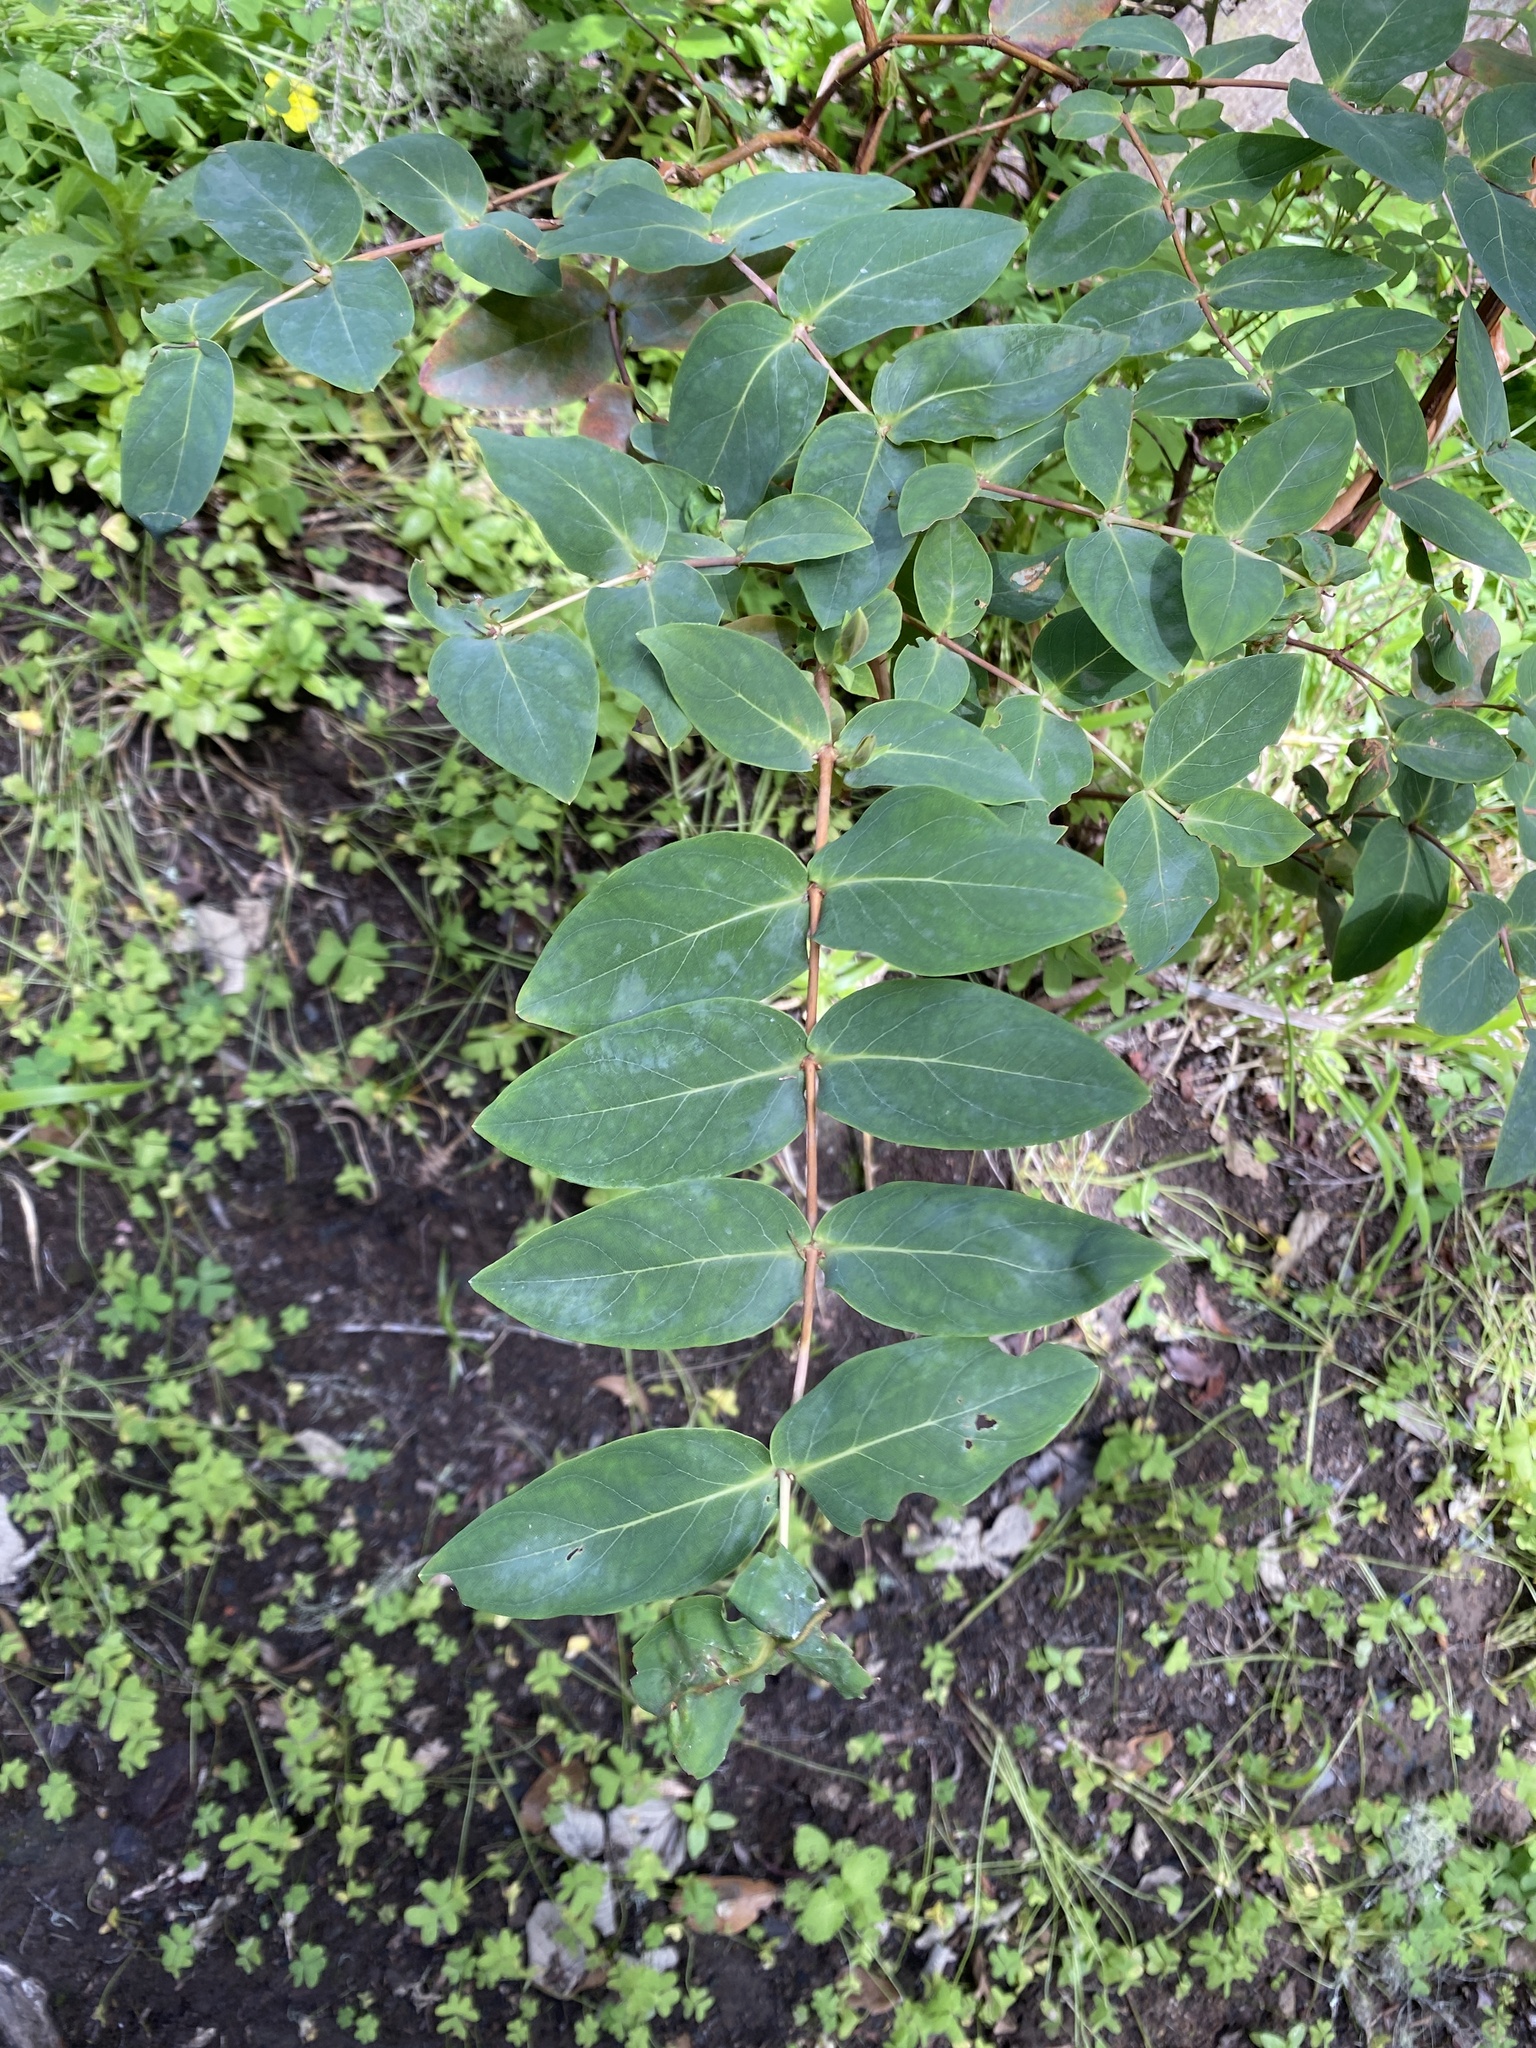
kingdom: Plantae
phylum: Tracheophyta
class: Magnoliopsida
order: Malpighiales
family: Hypericaceae
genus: Hypericum
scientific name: Hypericum grandifolium
